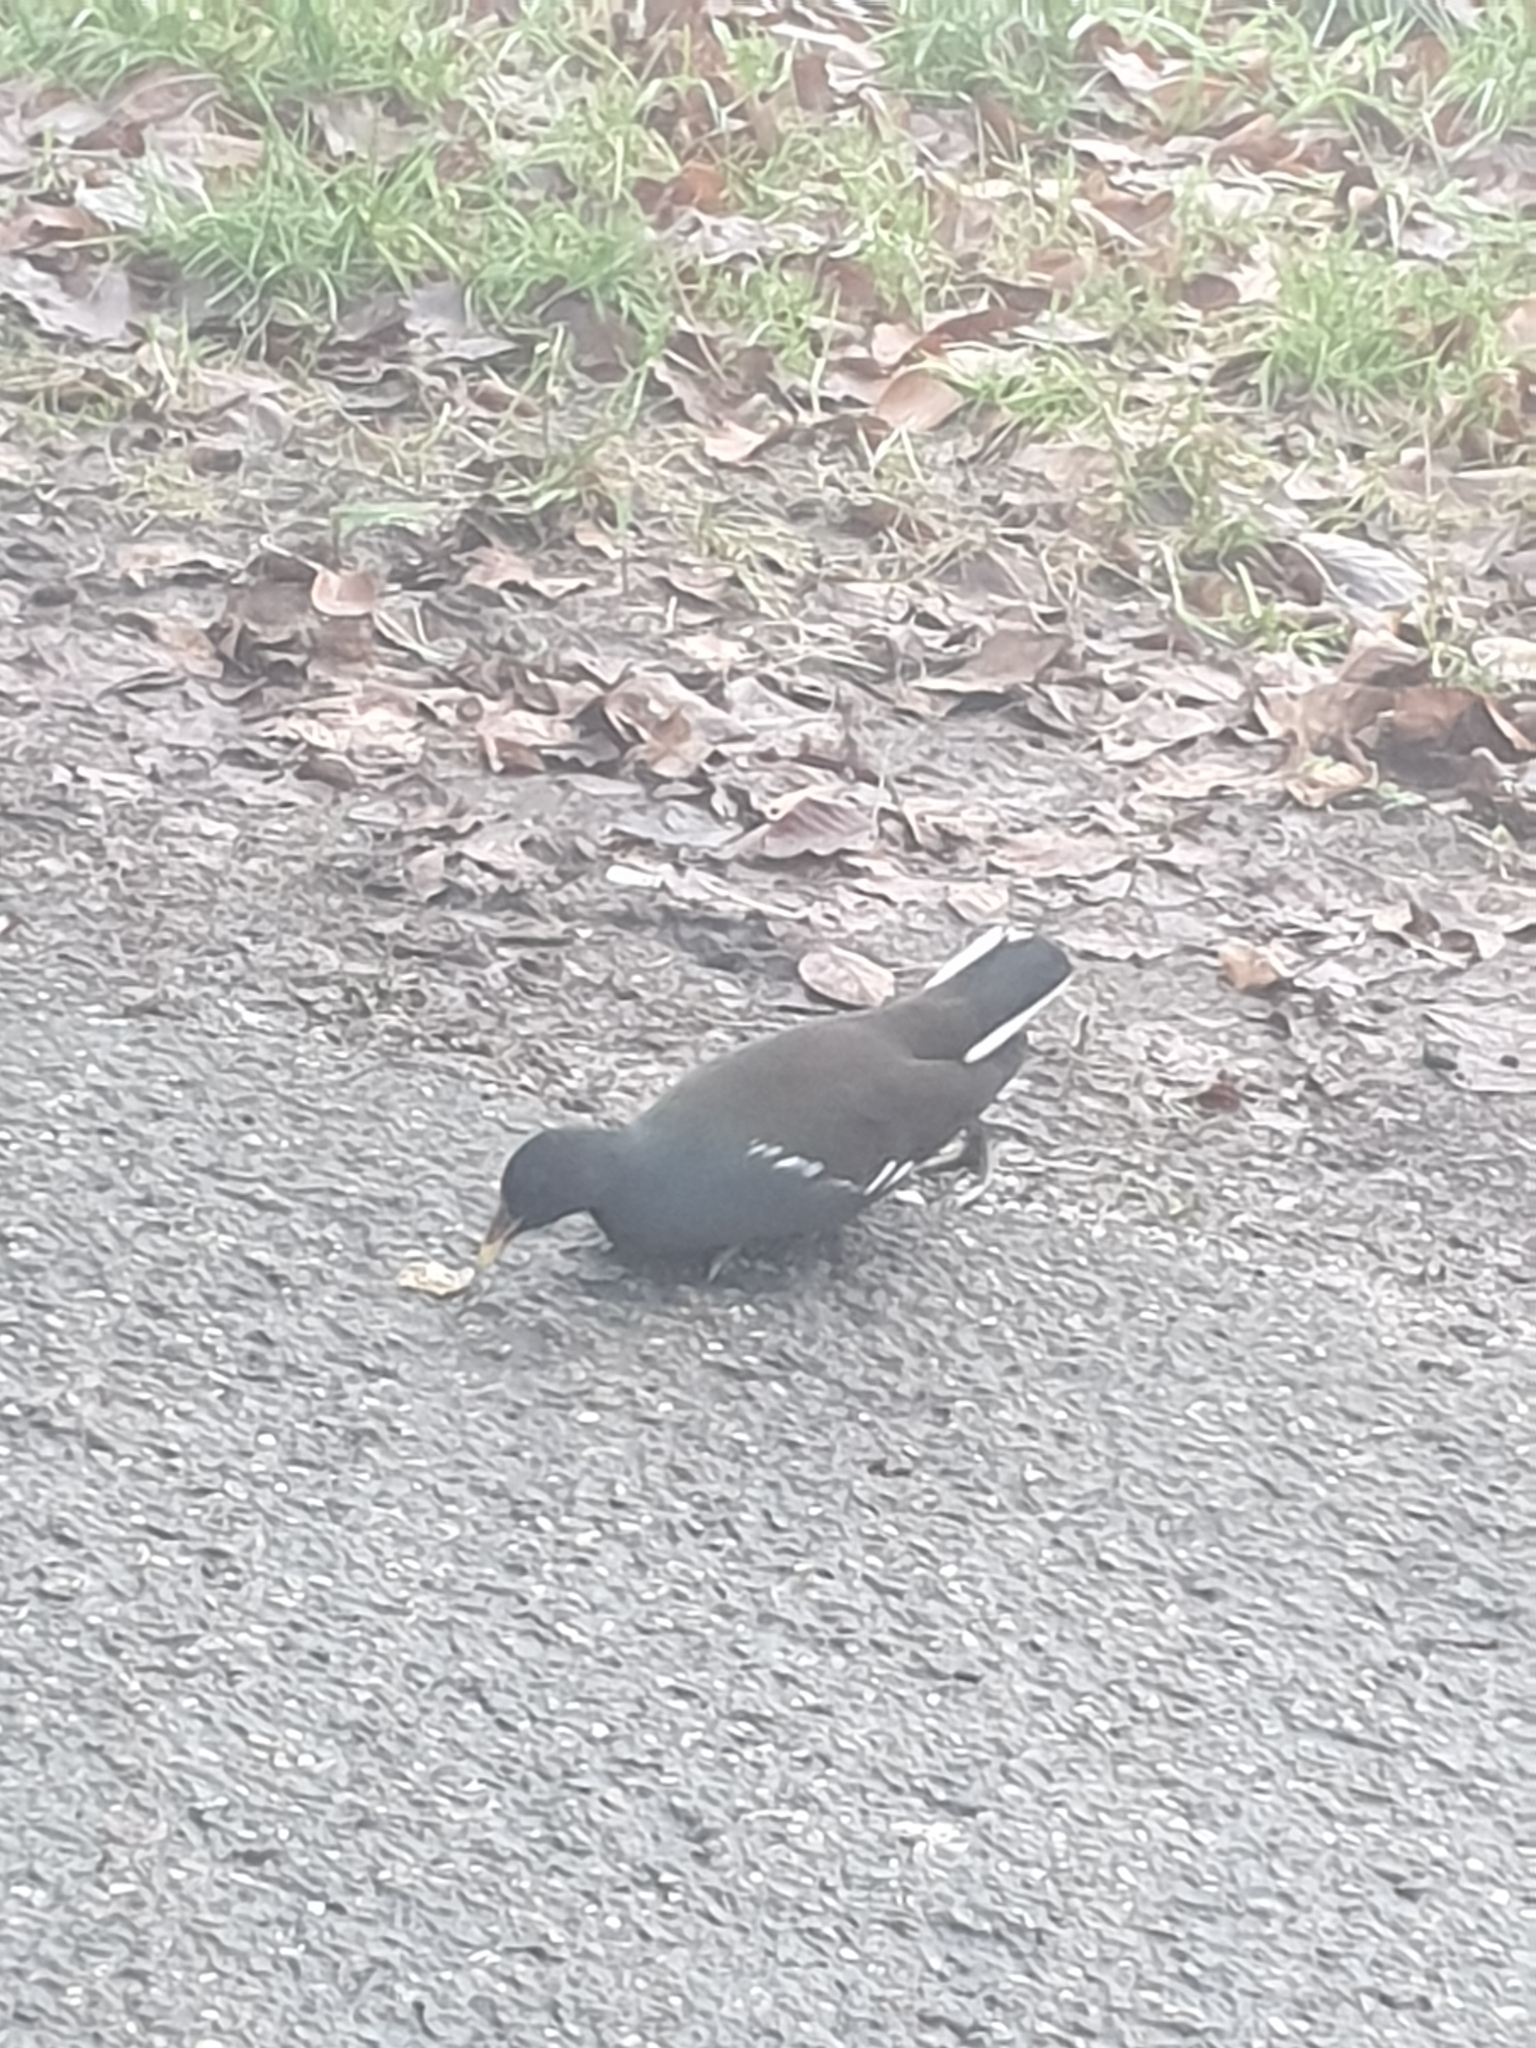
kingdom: Animalia
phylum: Chordata
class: Aves
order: Gruiformes
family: Rallidae
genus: Gallinula
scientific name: Gallinula chloropus
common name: Common moorhen
